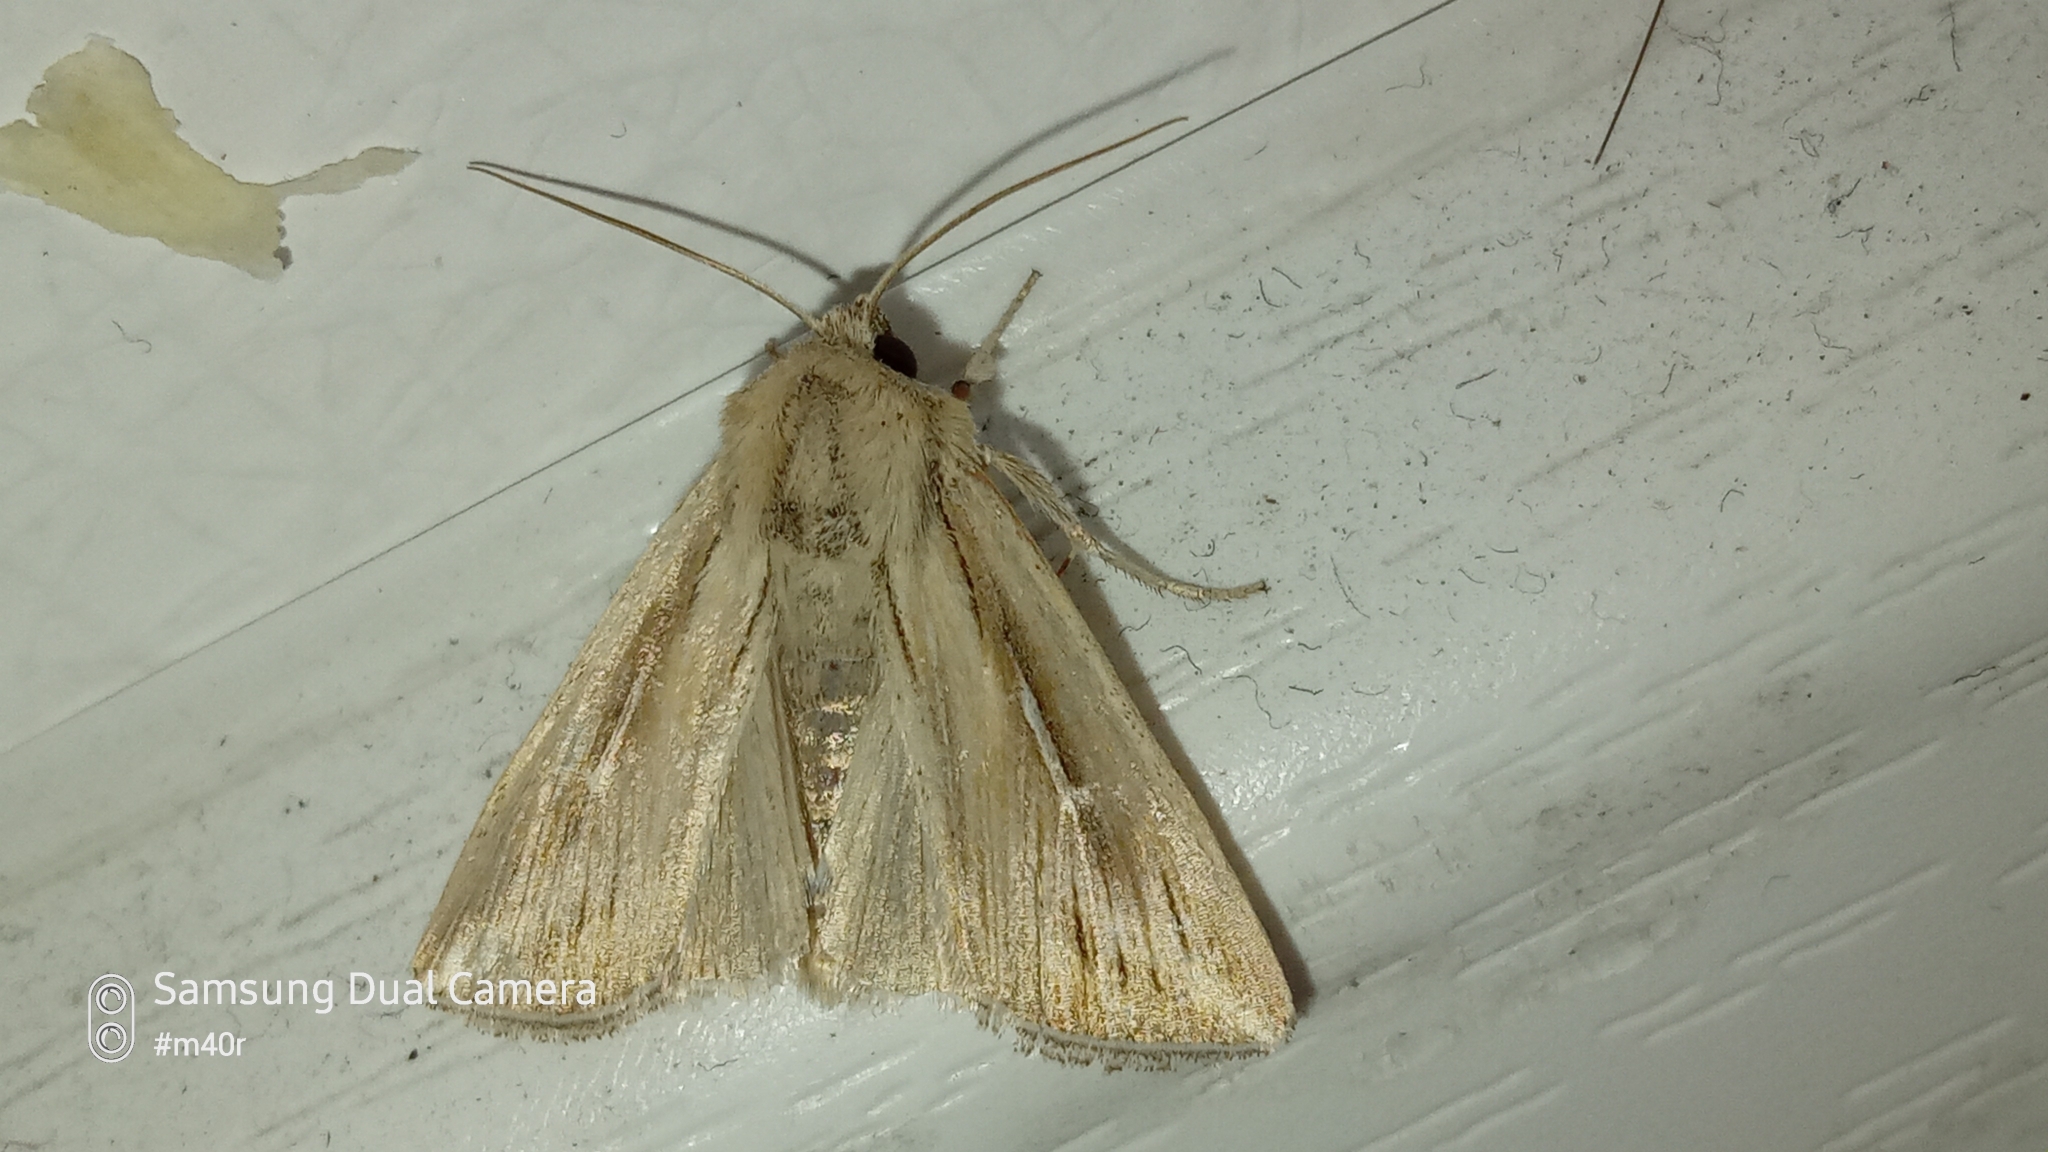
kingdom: Animalia
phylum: Arthropoda
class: Insecta
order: Lepidoptera
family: Noctuidae
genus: Mythimna
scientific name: Mythimna l-album
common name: L-album wainscot
